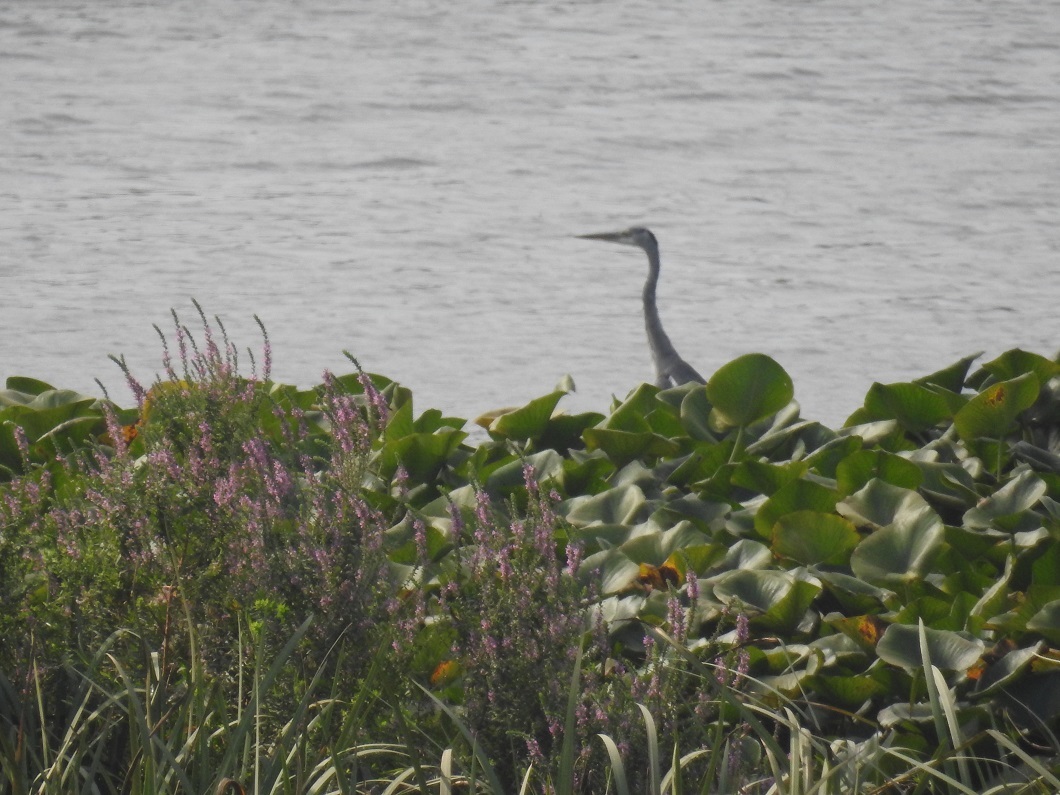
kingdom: Animalia
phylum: Chordata
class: Aves
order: Pelecaniformes
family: Ardeidae
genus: Ardea
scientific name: Ardea cinerea
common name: Grey heron
